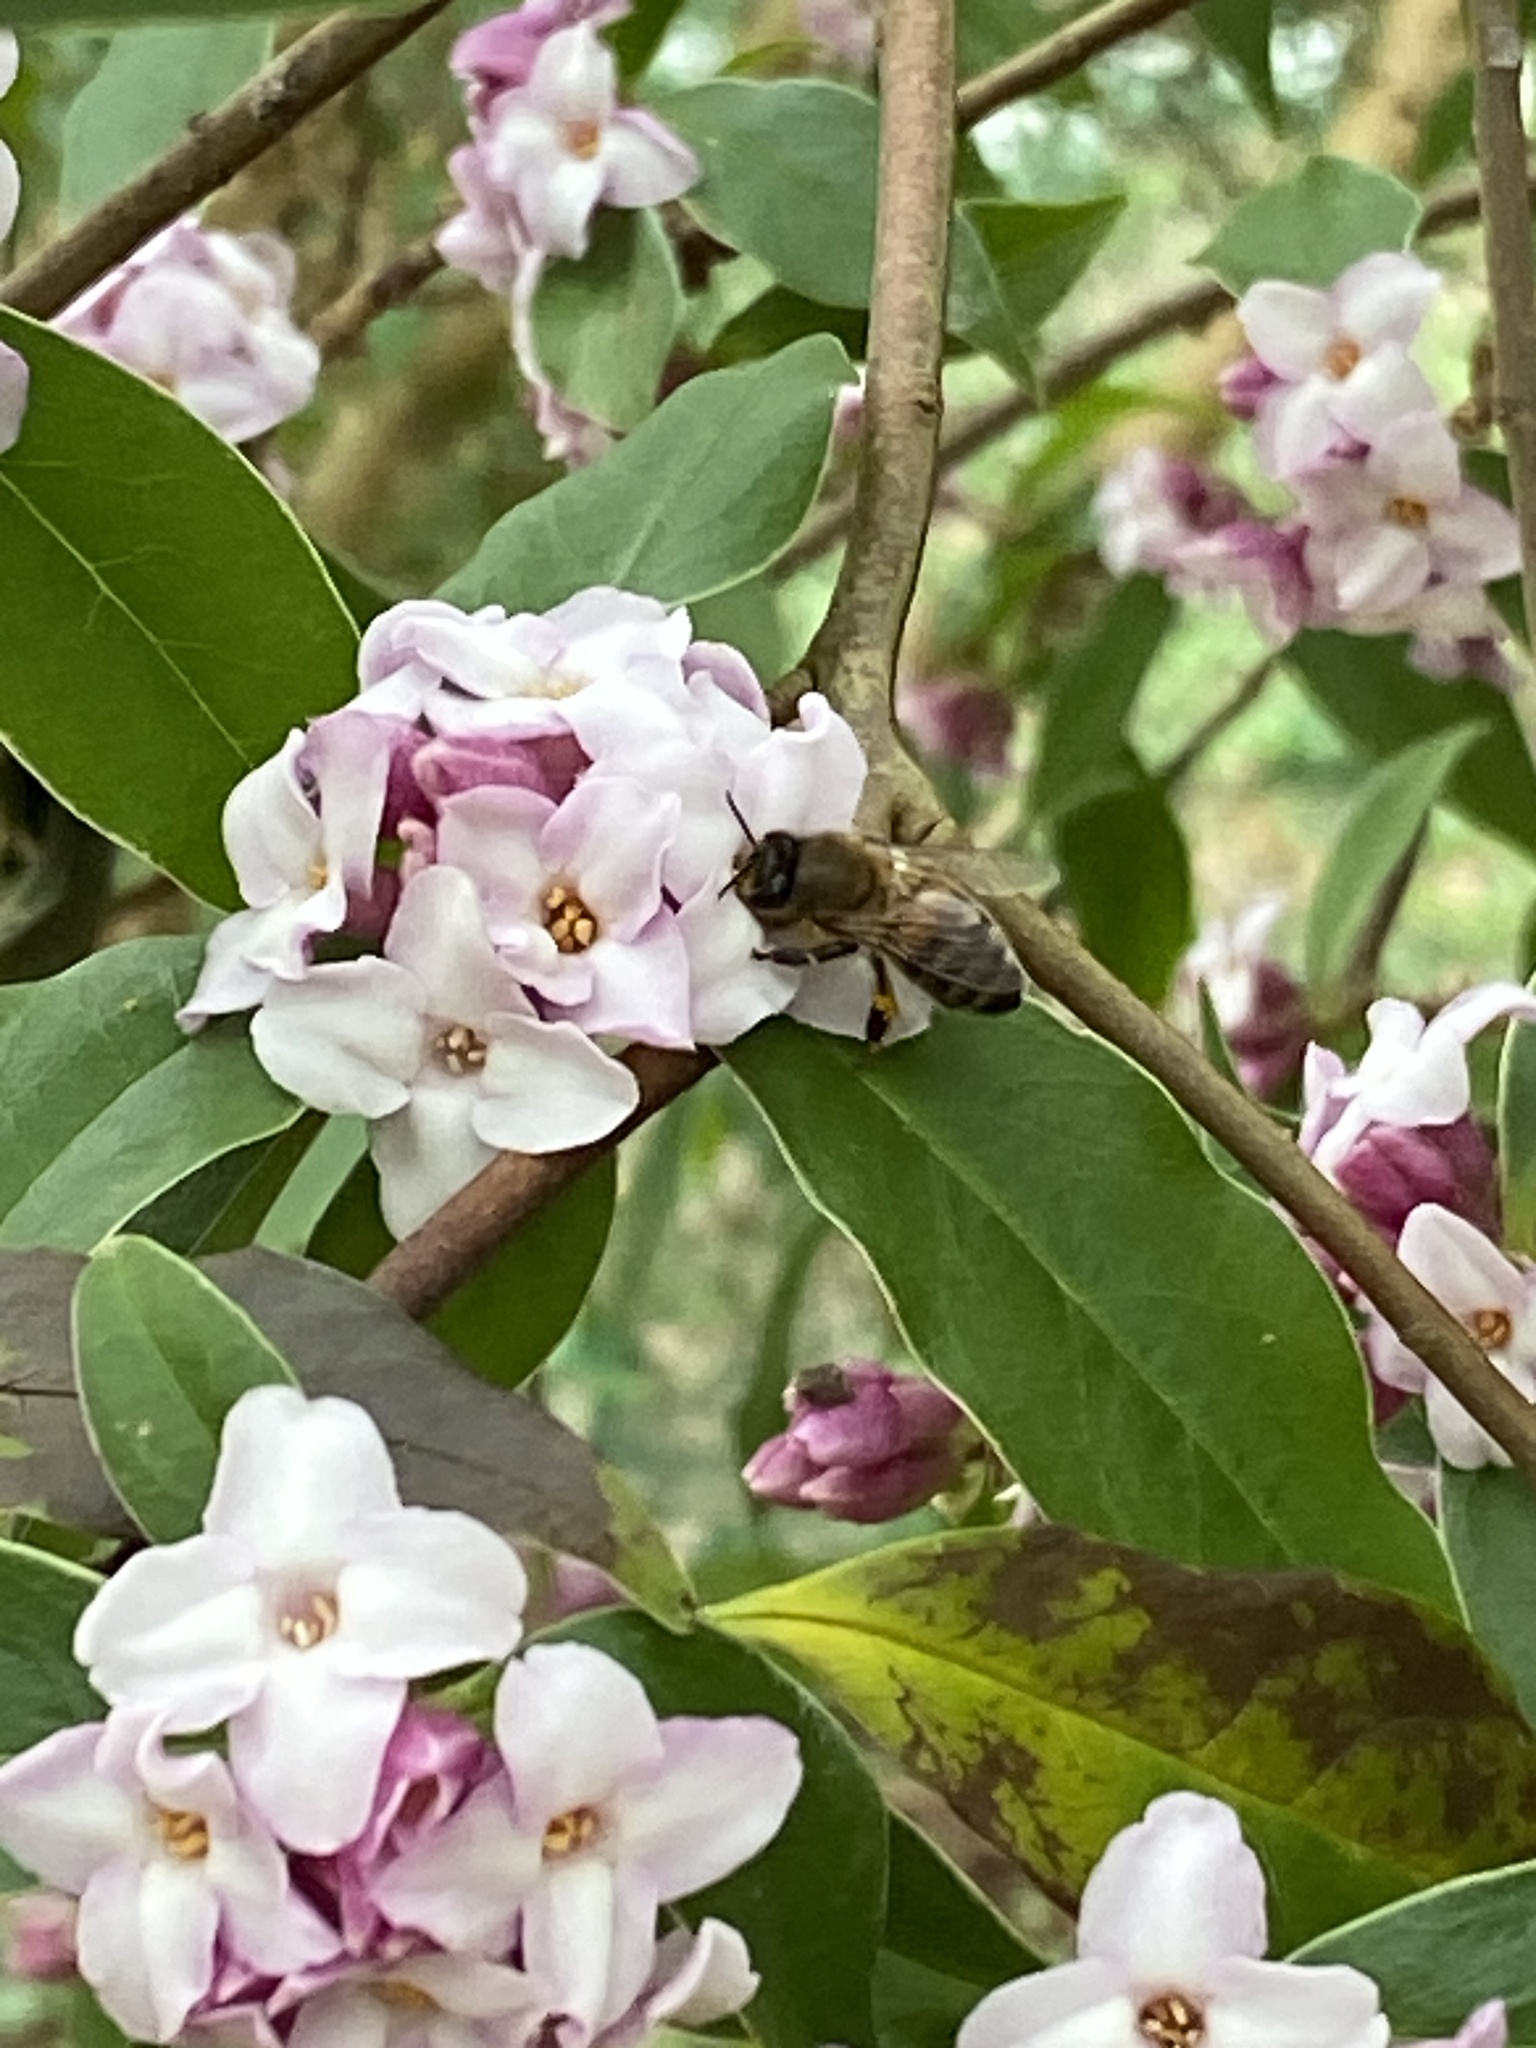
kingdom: Animalia
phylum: Arthropoda
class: Insecta
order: Hymenoptera
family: Apidae
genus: Apis
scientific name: Apis mellifera
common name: Honey bee
